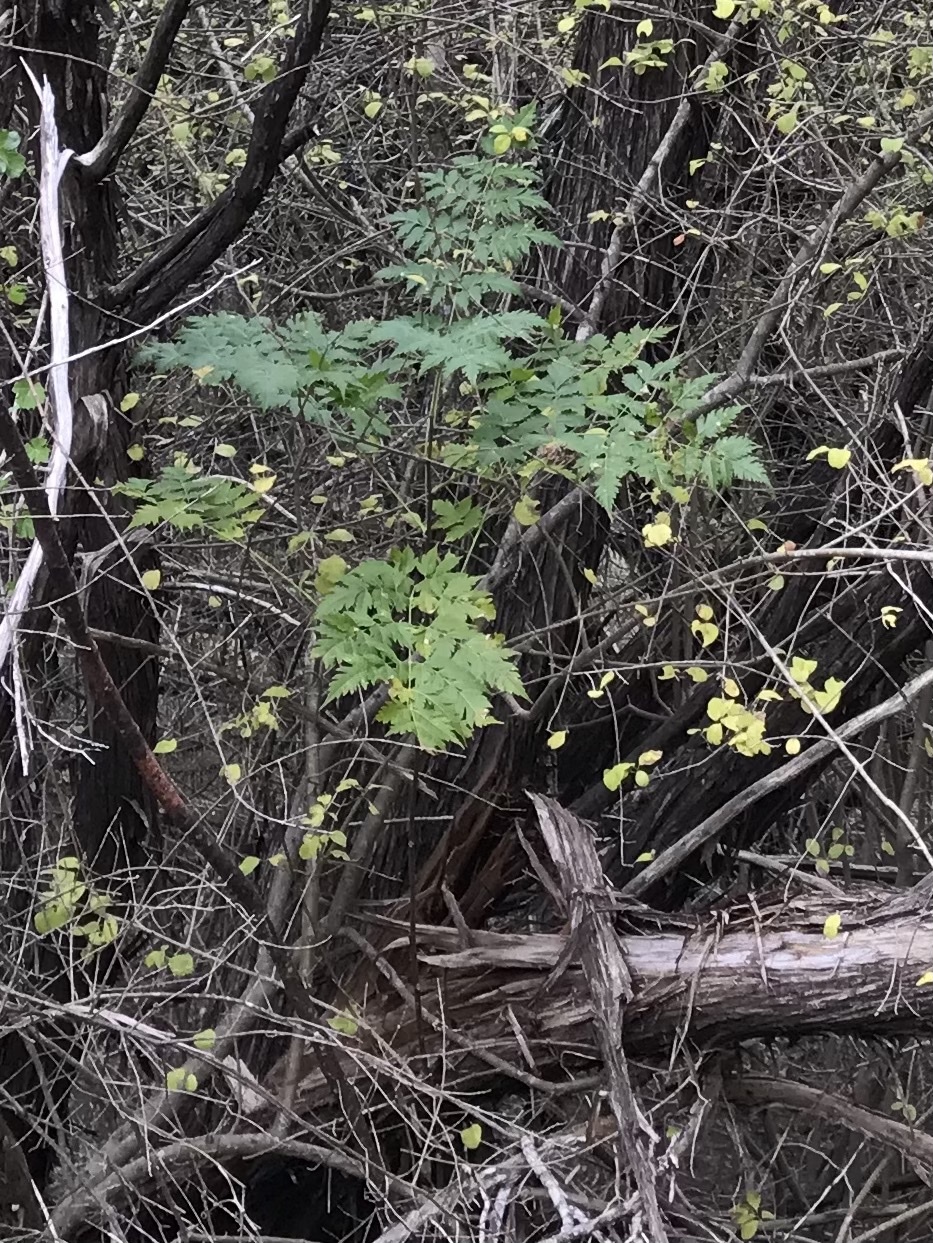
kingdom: Plantae
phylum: Tracheophyta
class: Magnoliopsida
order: Sapindales
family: Meliaceae
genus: Melia
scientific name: Melia azedarach
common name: Chinaberrytree
